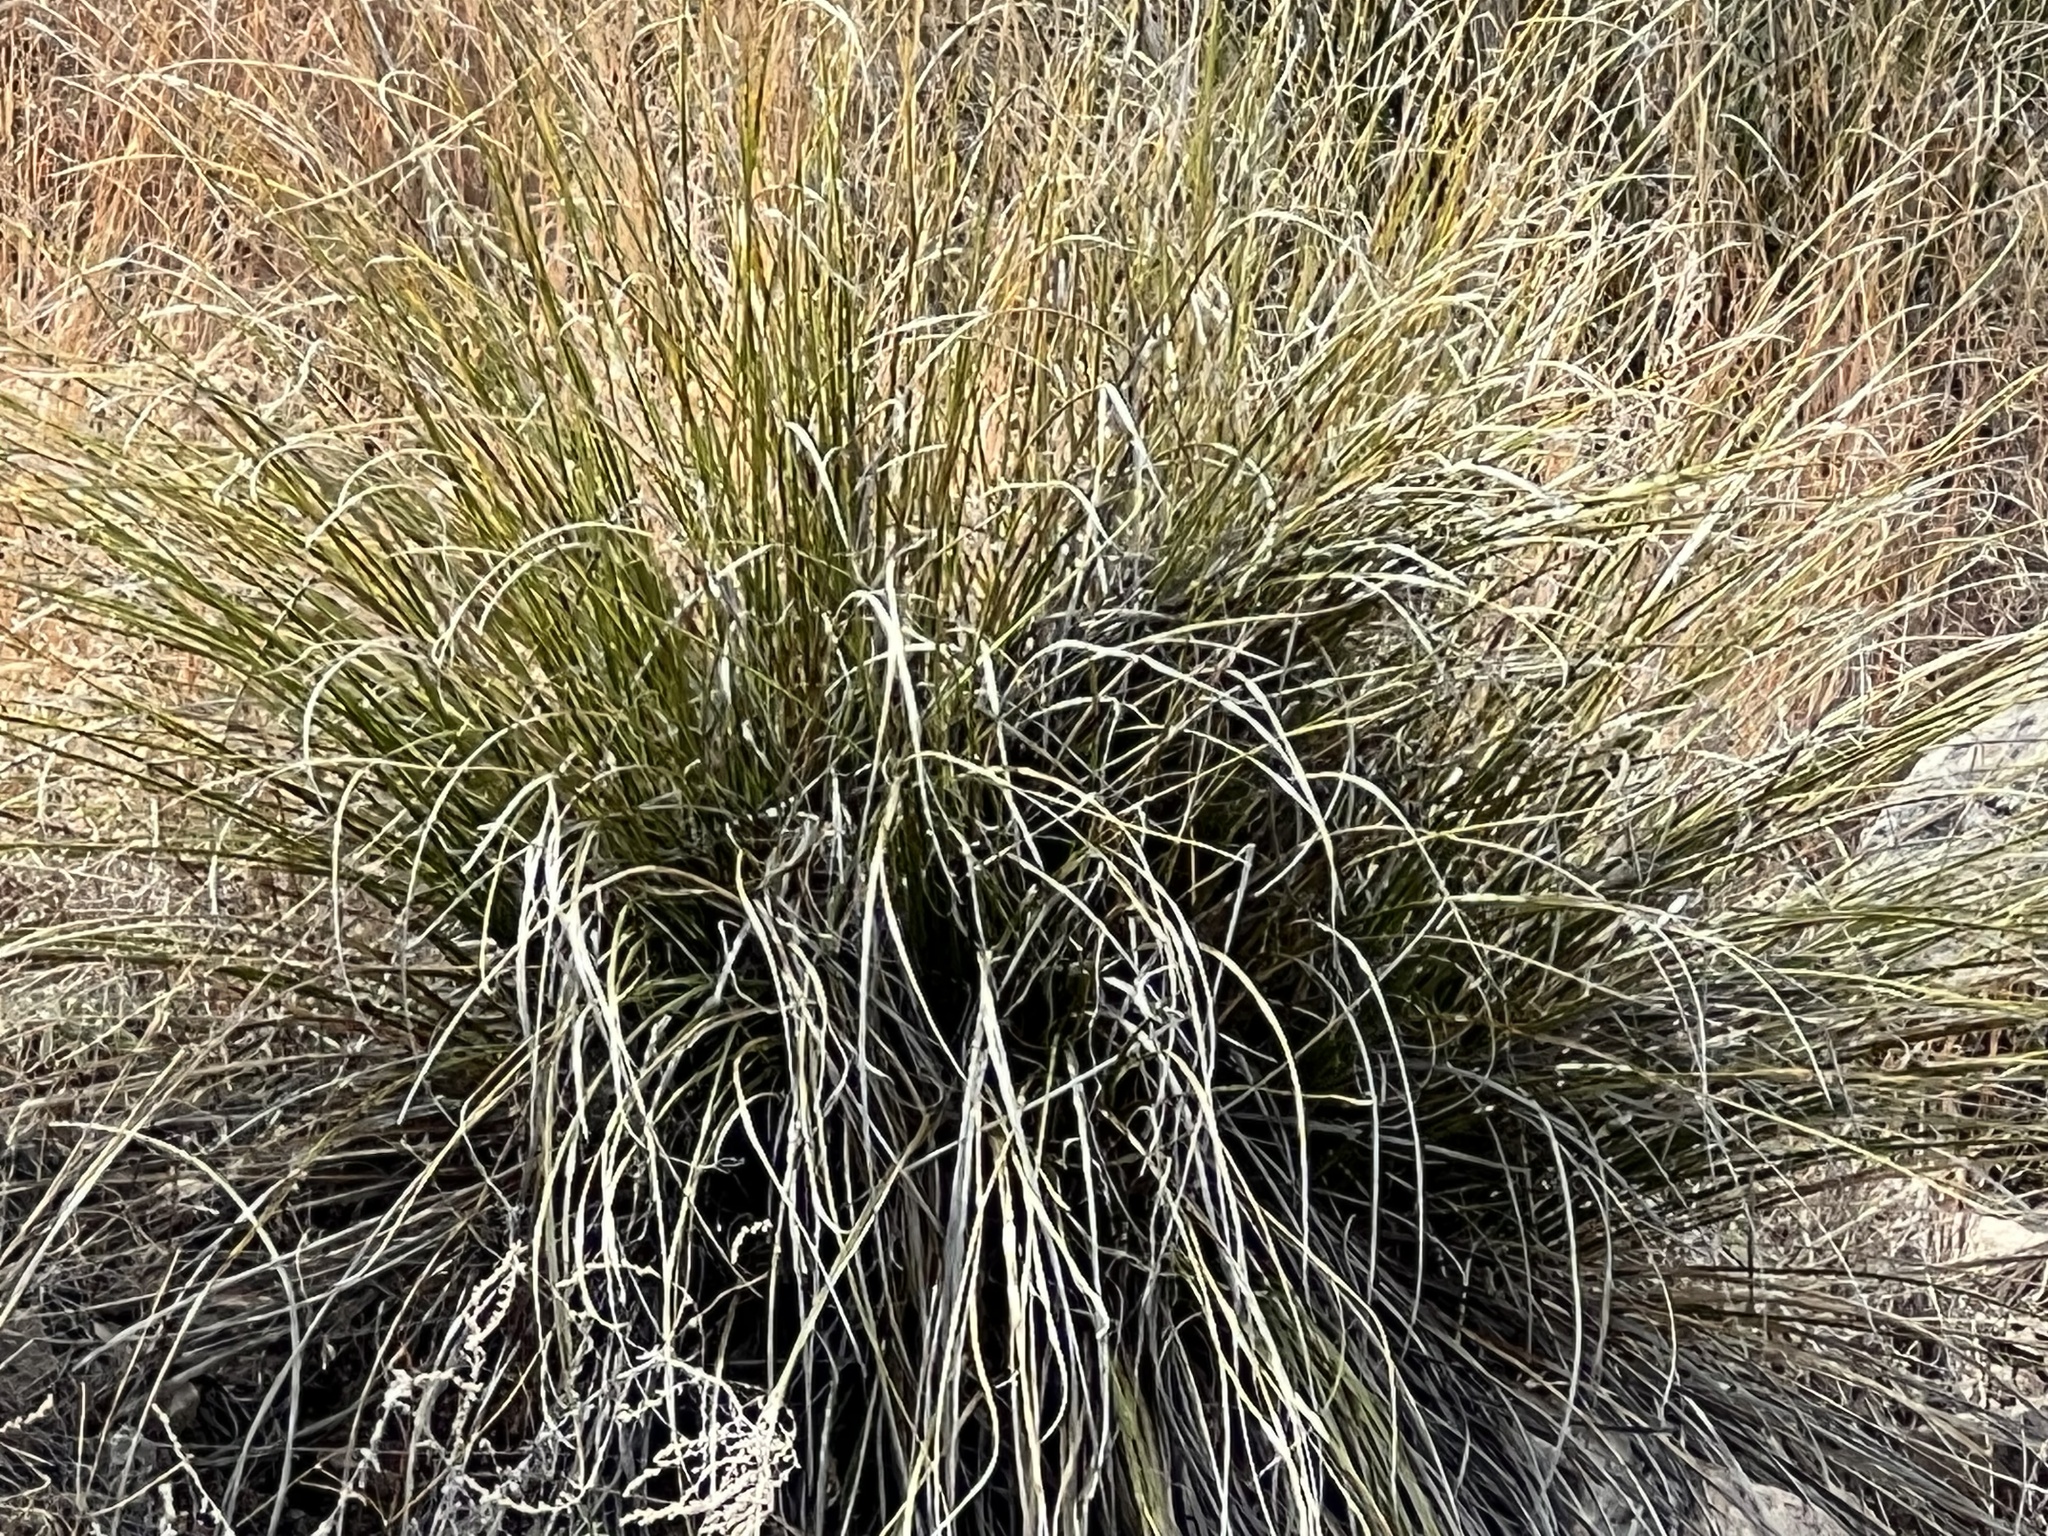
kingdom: Plantae
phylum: Tracheophyta
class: Liliopsida
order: Asparagales
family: Asparagaceae
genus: Nolina
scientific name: Nolina microcarpa
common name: Bear-grass
